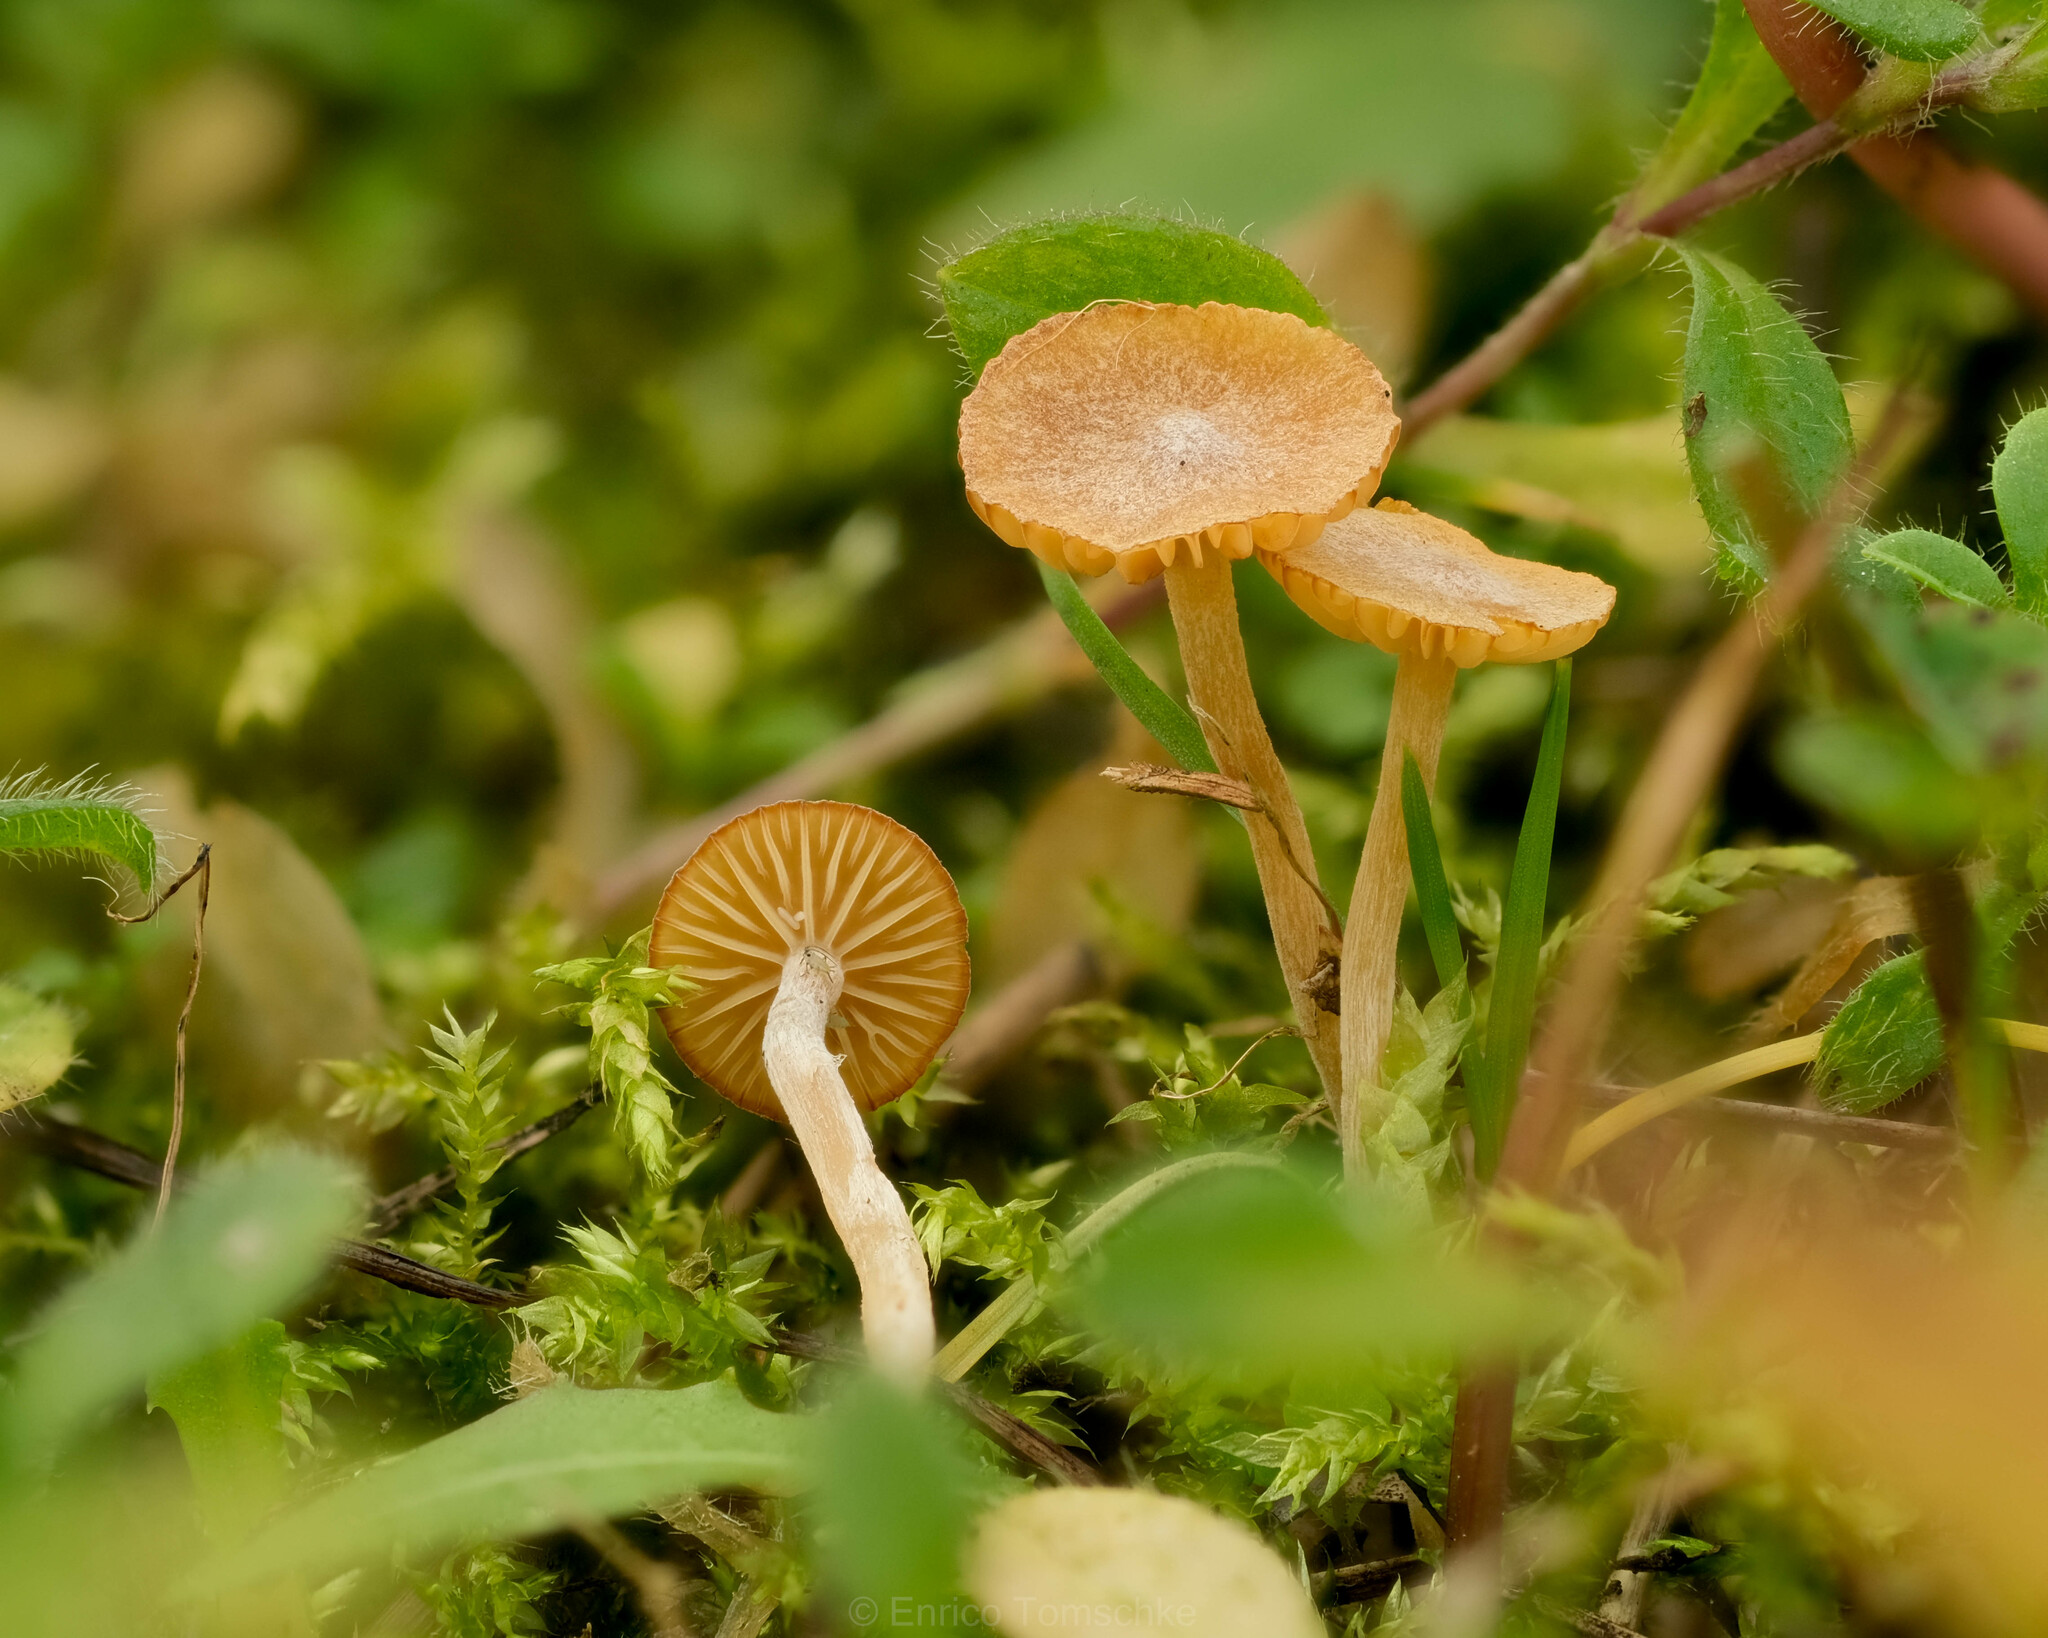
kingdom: Fungi
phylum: Basidiomycota
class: Agaricomycetes
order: Agaricales
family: Hymenogastraceae
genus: Galerina
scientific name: Galerina graminea
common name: Turf bell
